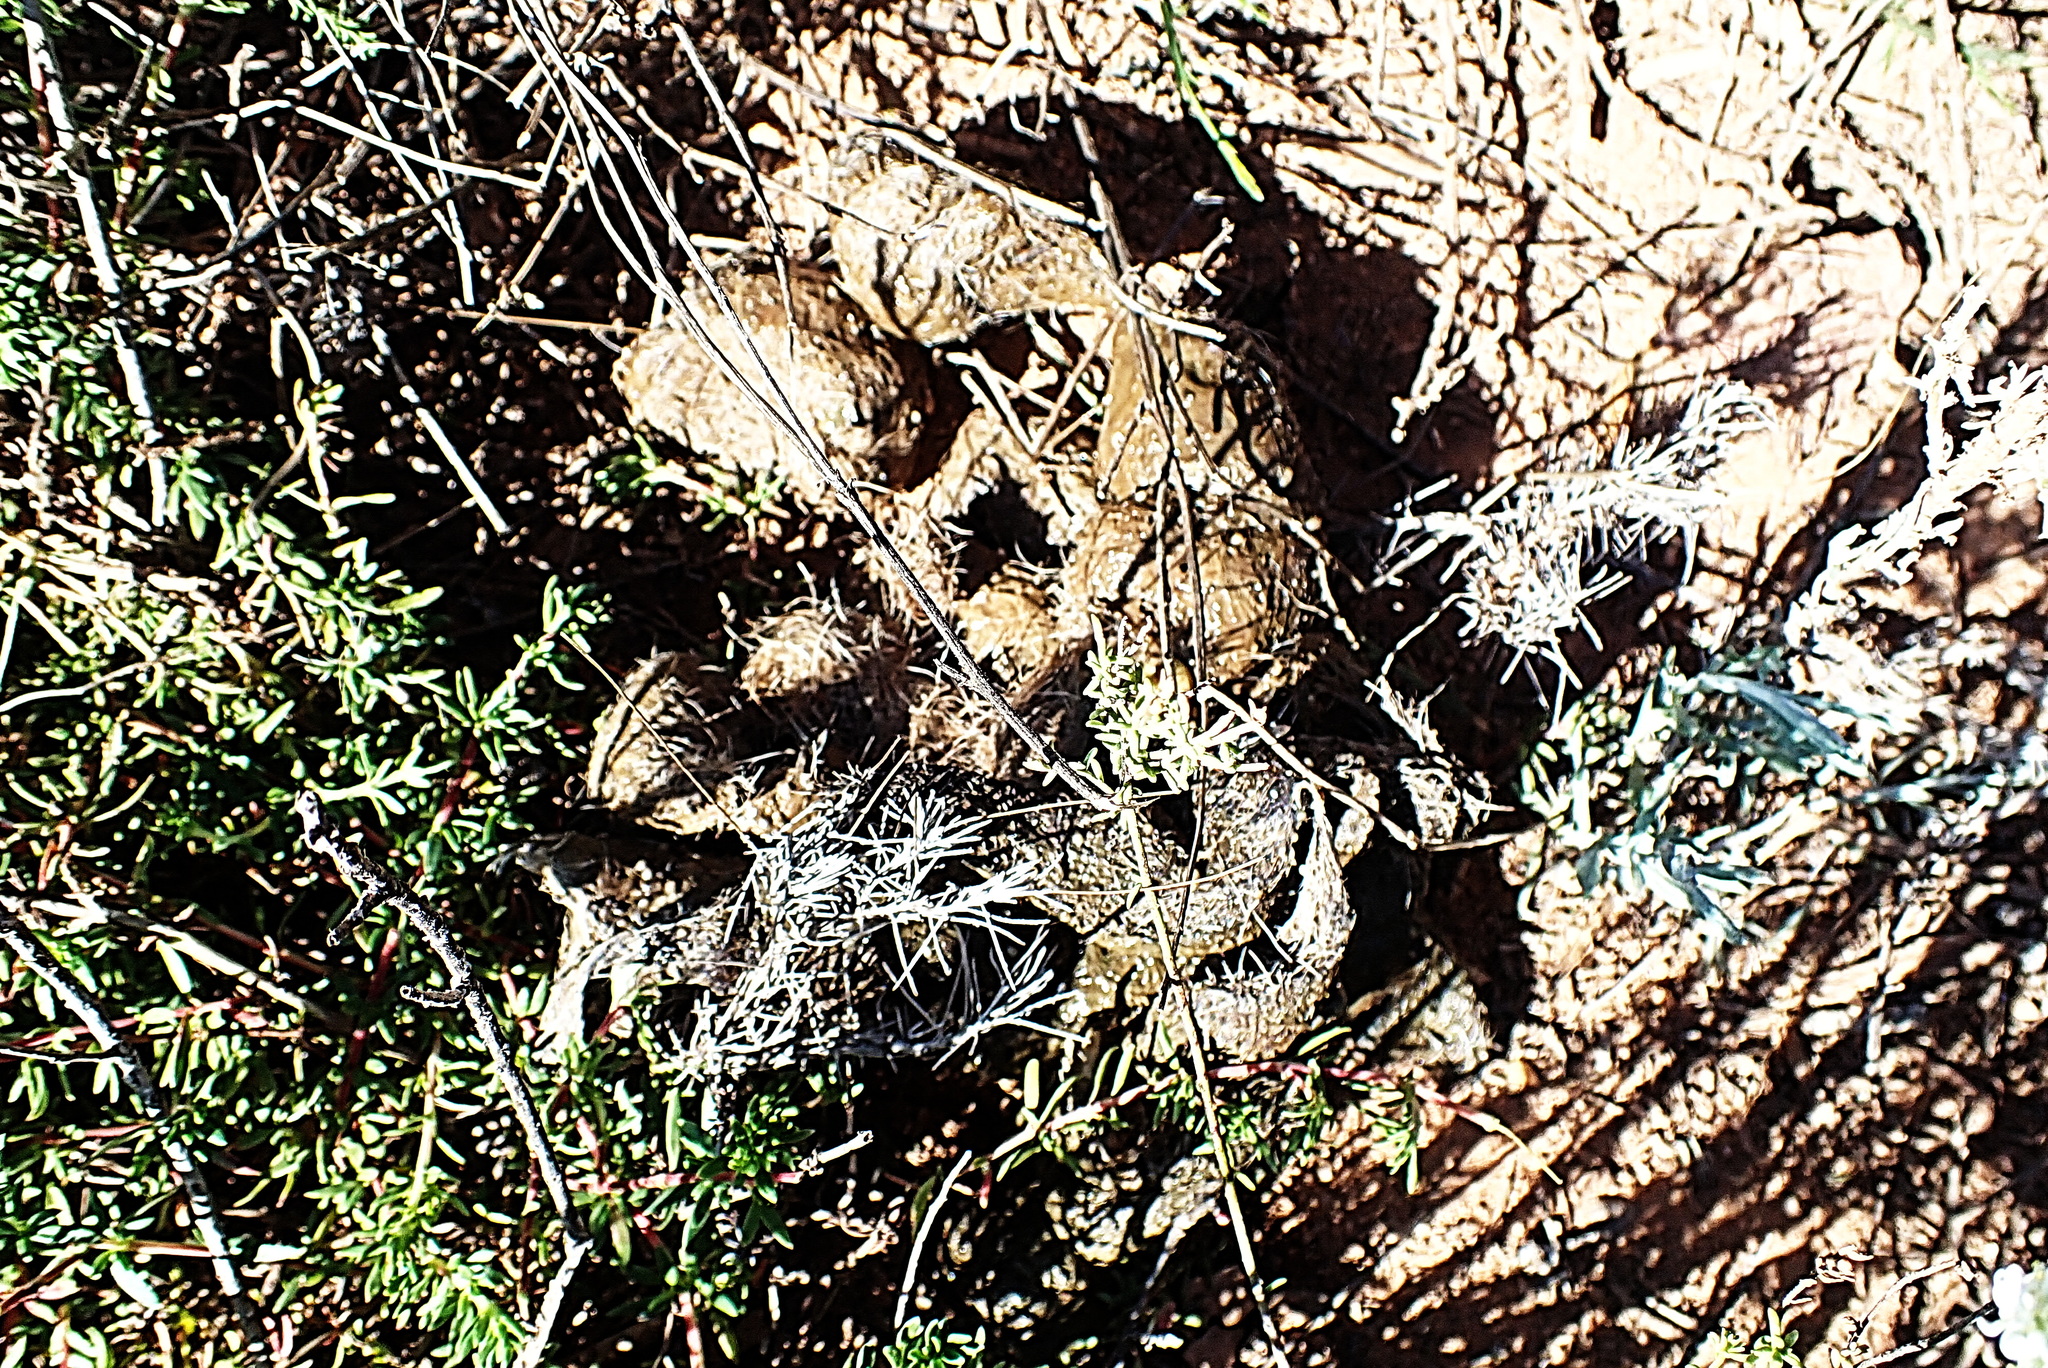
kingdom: Animalia
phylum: Chordata
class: Mammalia
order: Carnivora
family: Felidae
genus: Panthera
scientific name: Panthera pardus
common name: Leopard
